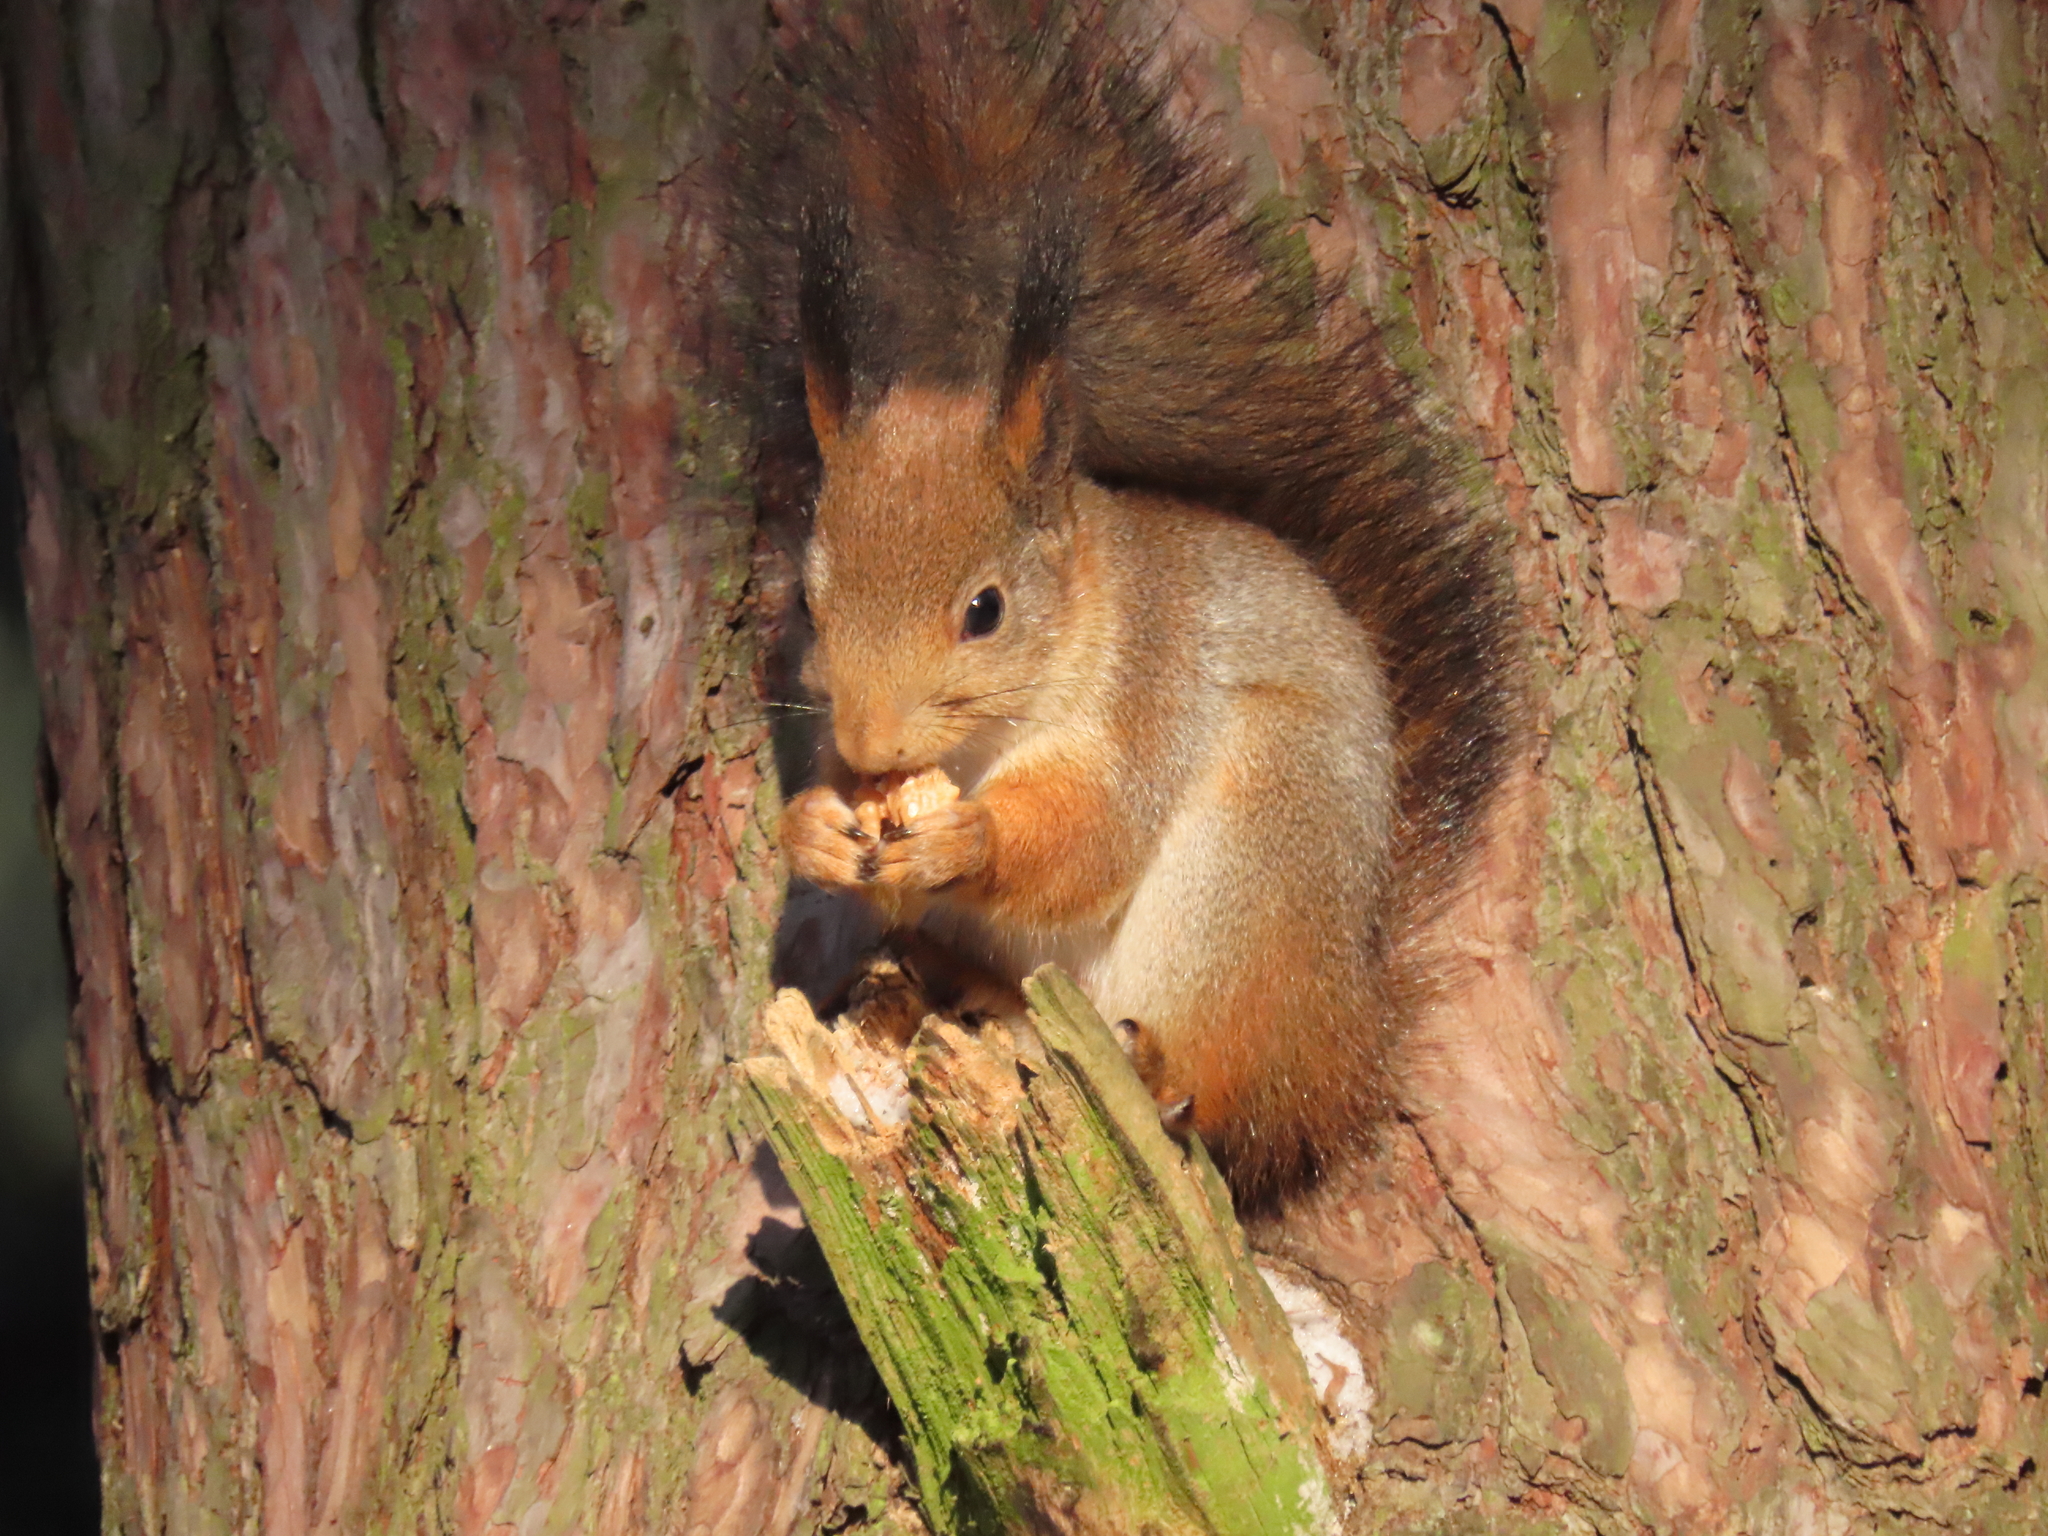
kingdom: Animalia
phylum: Chordata
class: Mammalia
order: Rodentia
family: Sciuridae
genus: Sciurus
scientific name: Sciurus vulgaris
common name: Eurasian red squirrel
